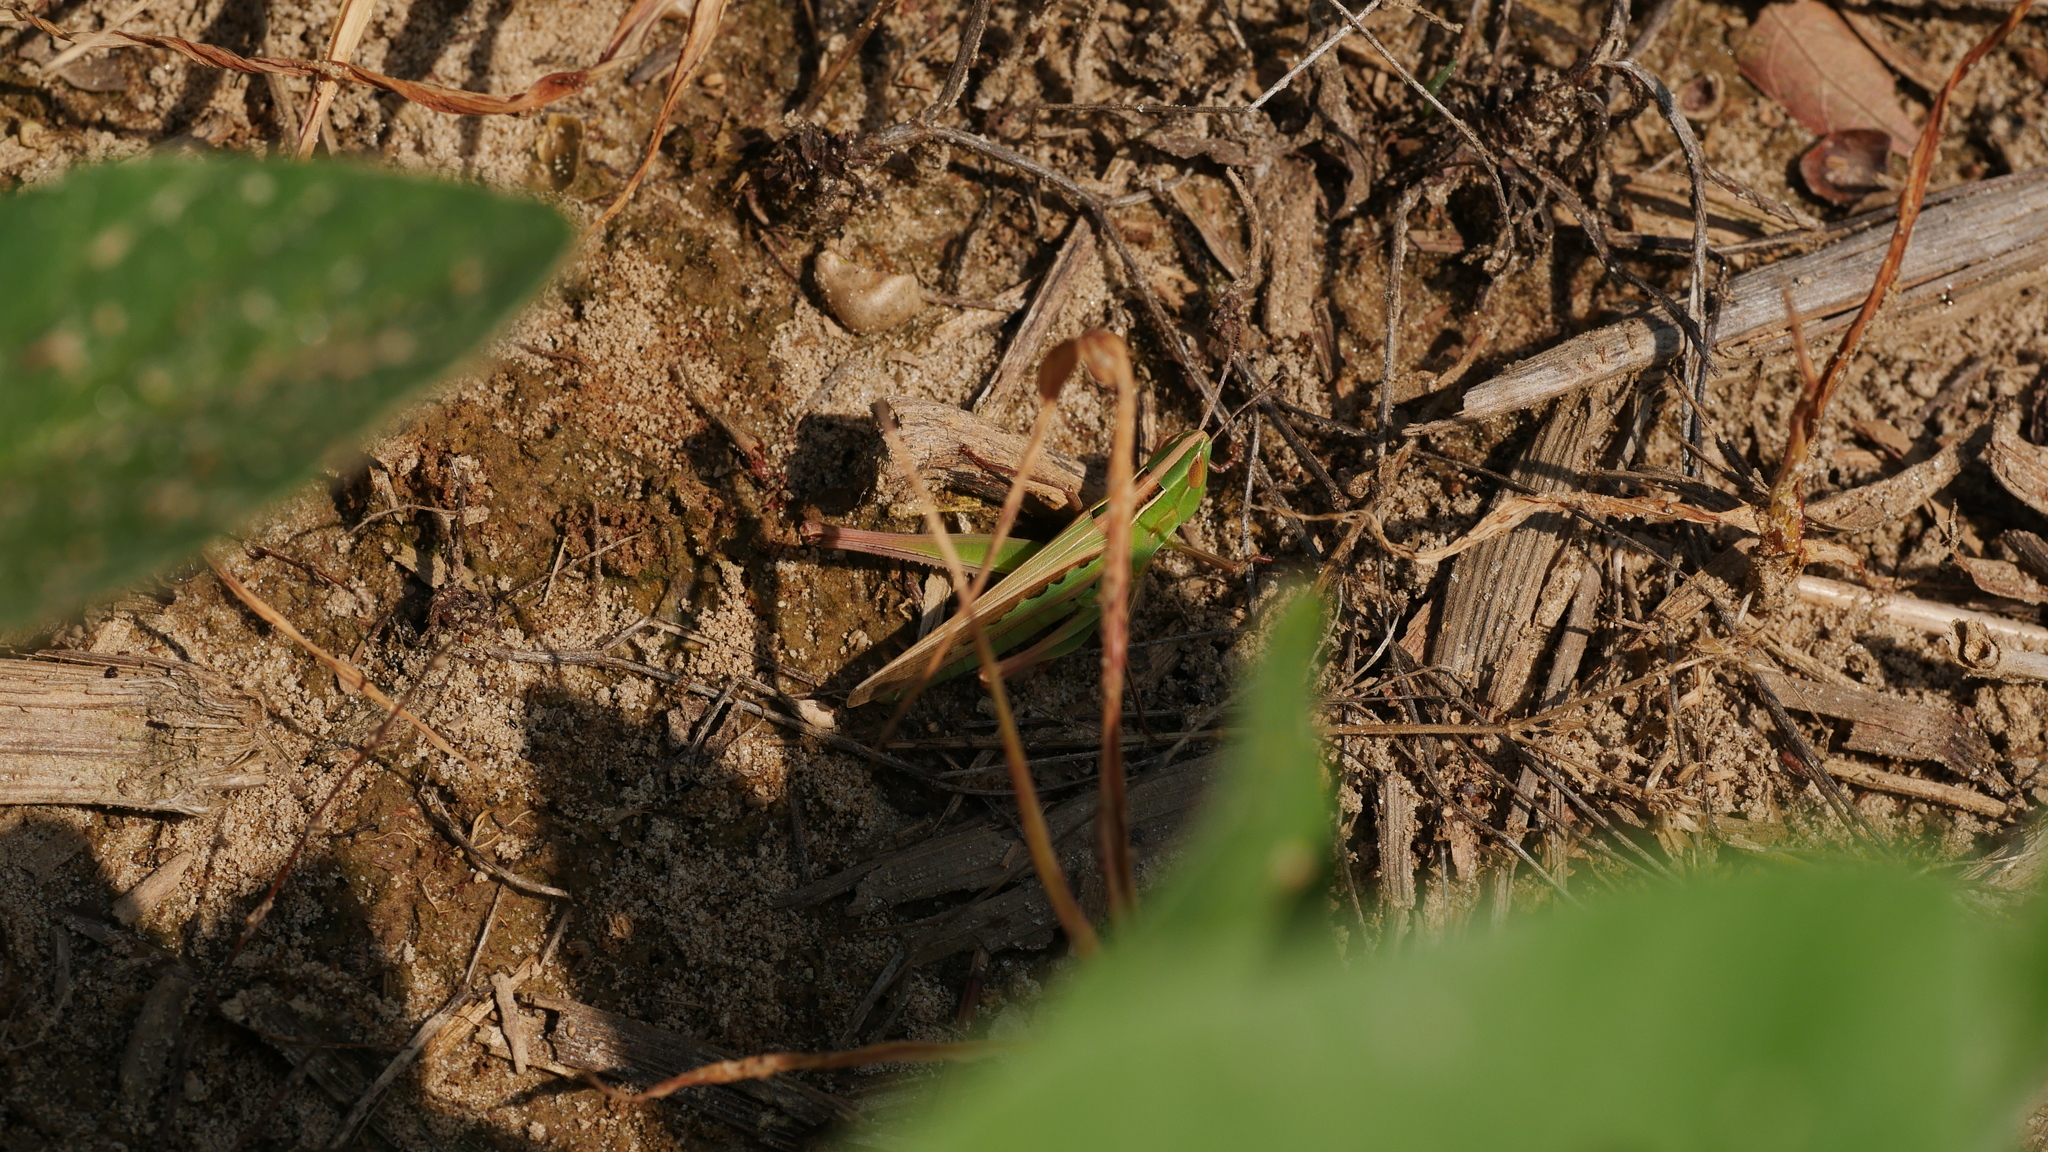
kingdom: Animalia
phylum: Arthropoda
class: Insecta
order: Orthoptera
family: Acrididae
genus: Syrbula
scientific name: Syrbula admirabilis
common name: Handsome grasshopper
